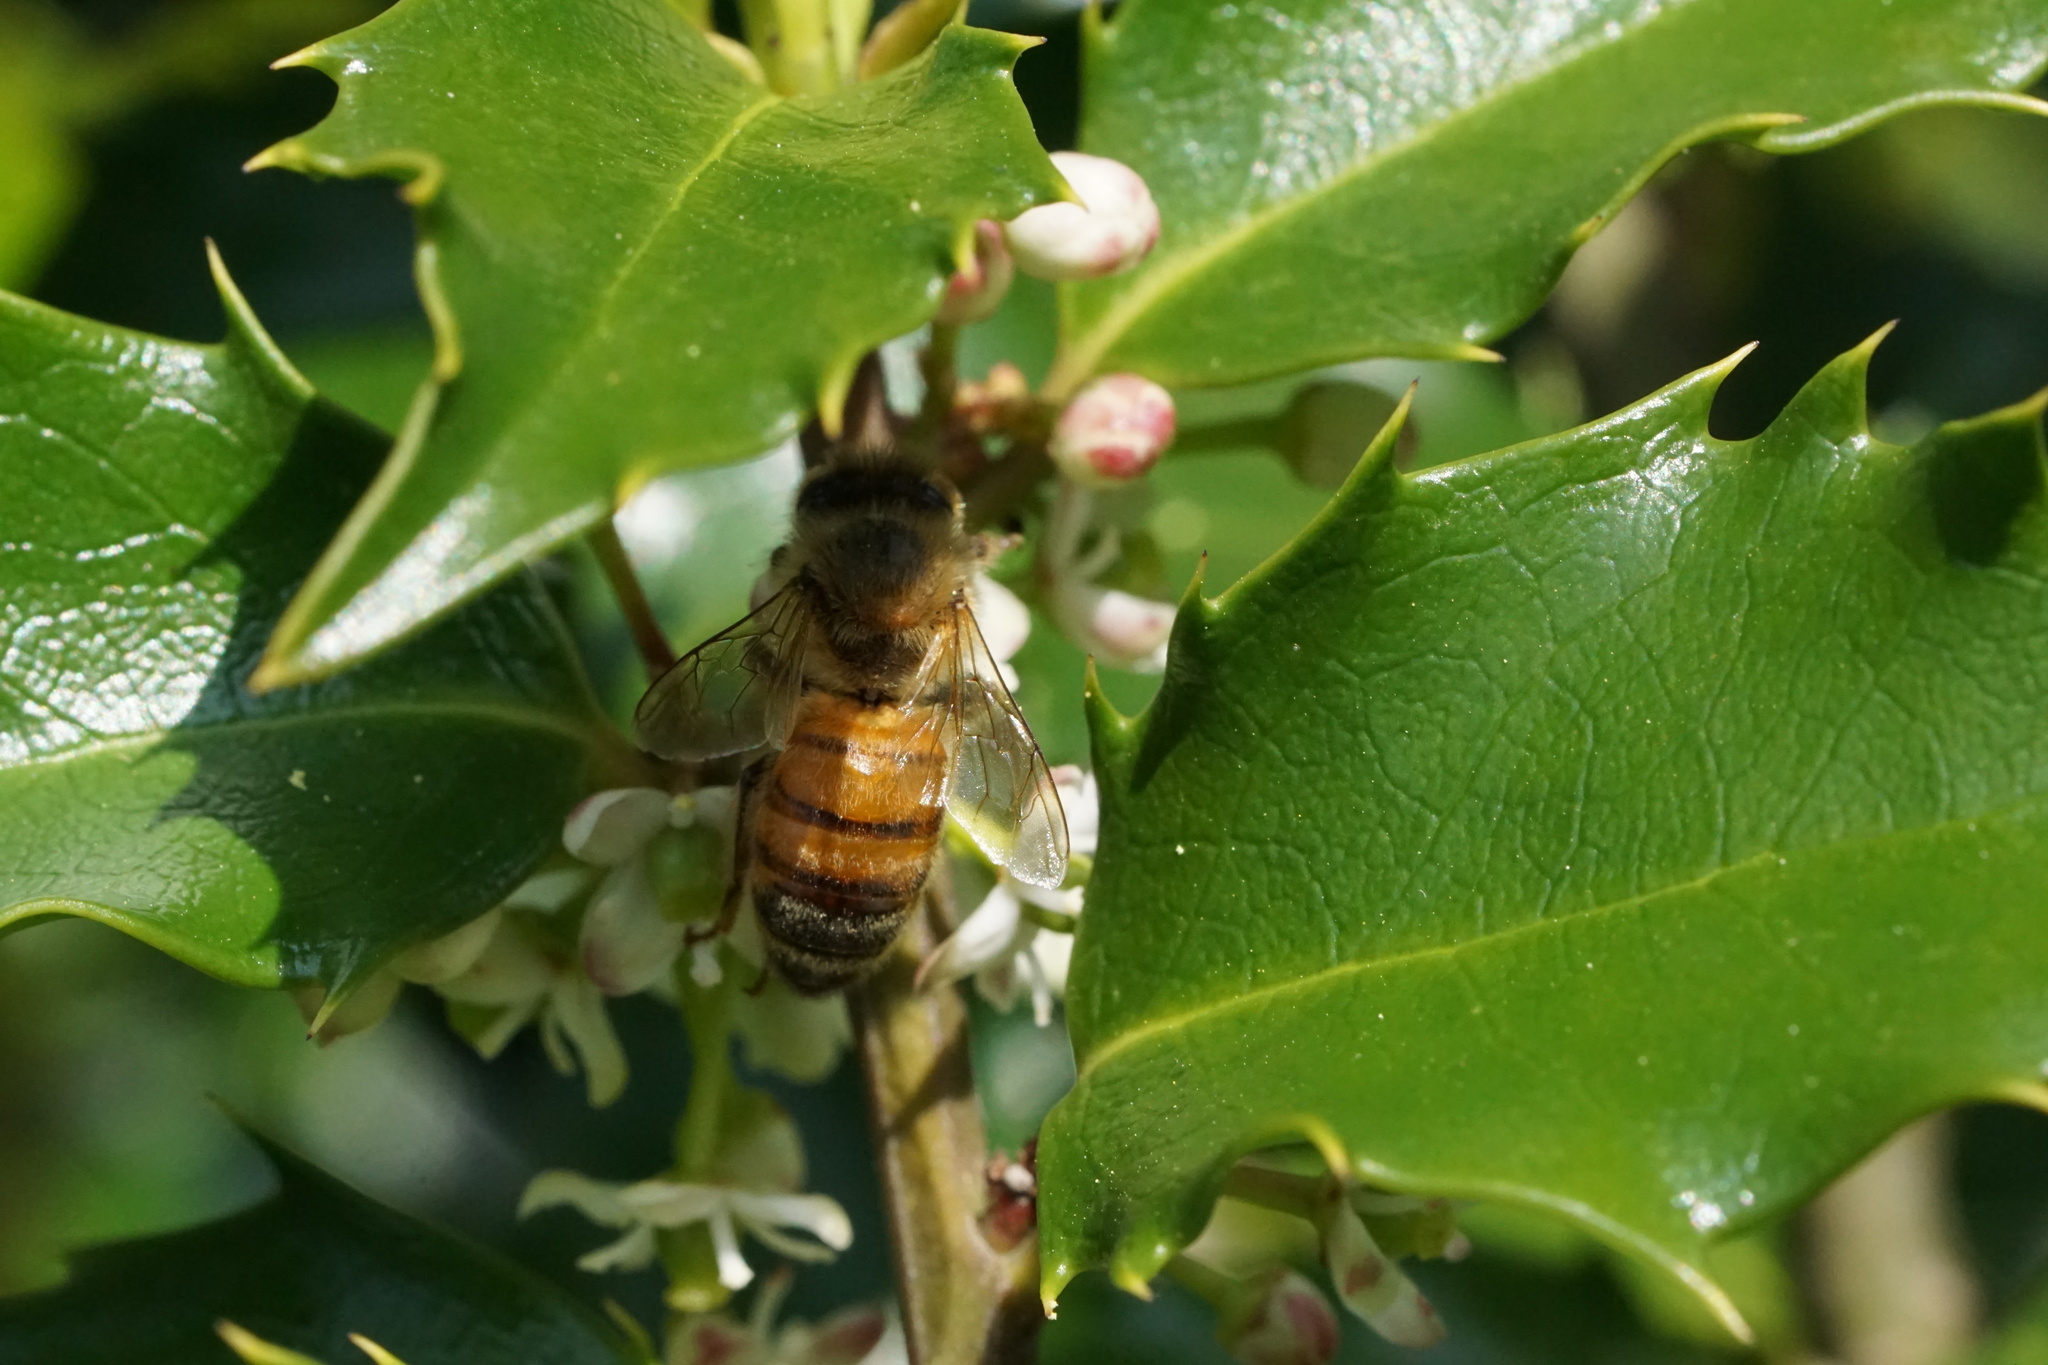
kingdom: Animalia
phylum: Arthropoda
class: Insecta
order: Hymenoptera
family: Apidae
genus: Apis
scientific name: Apis mellifera
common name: Honey bee
